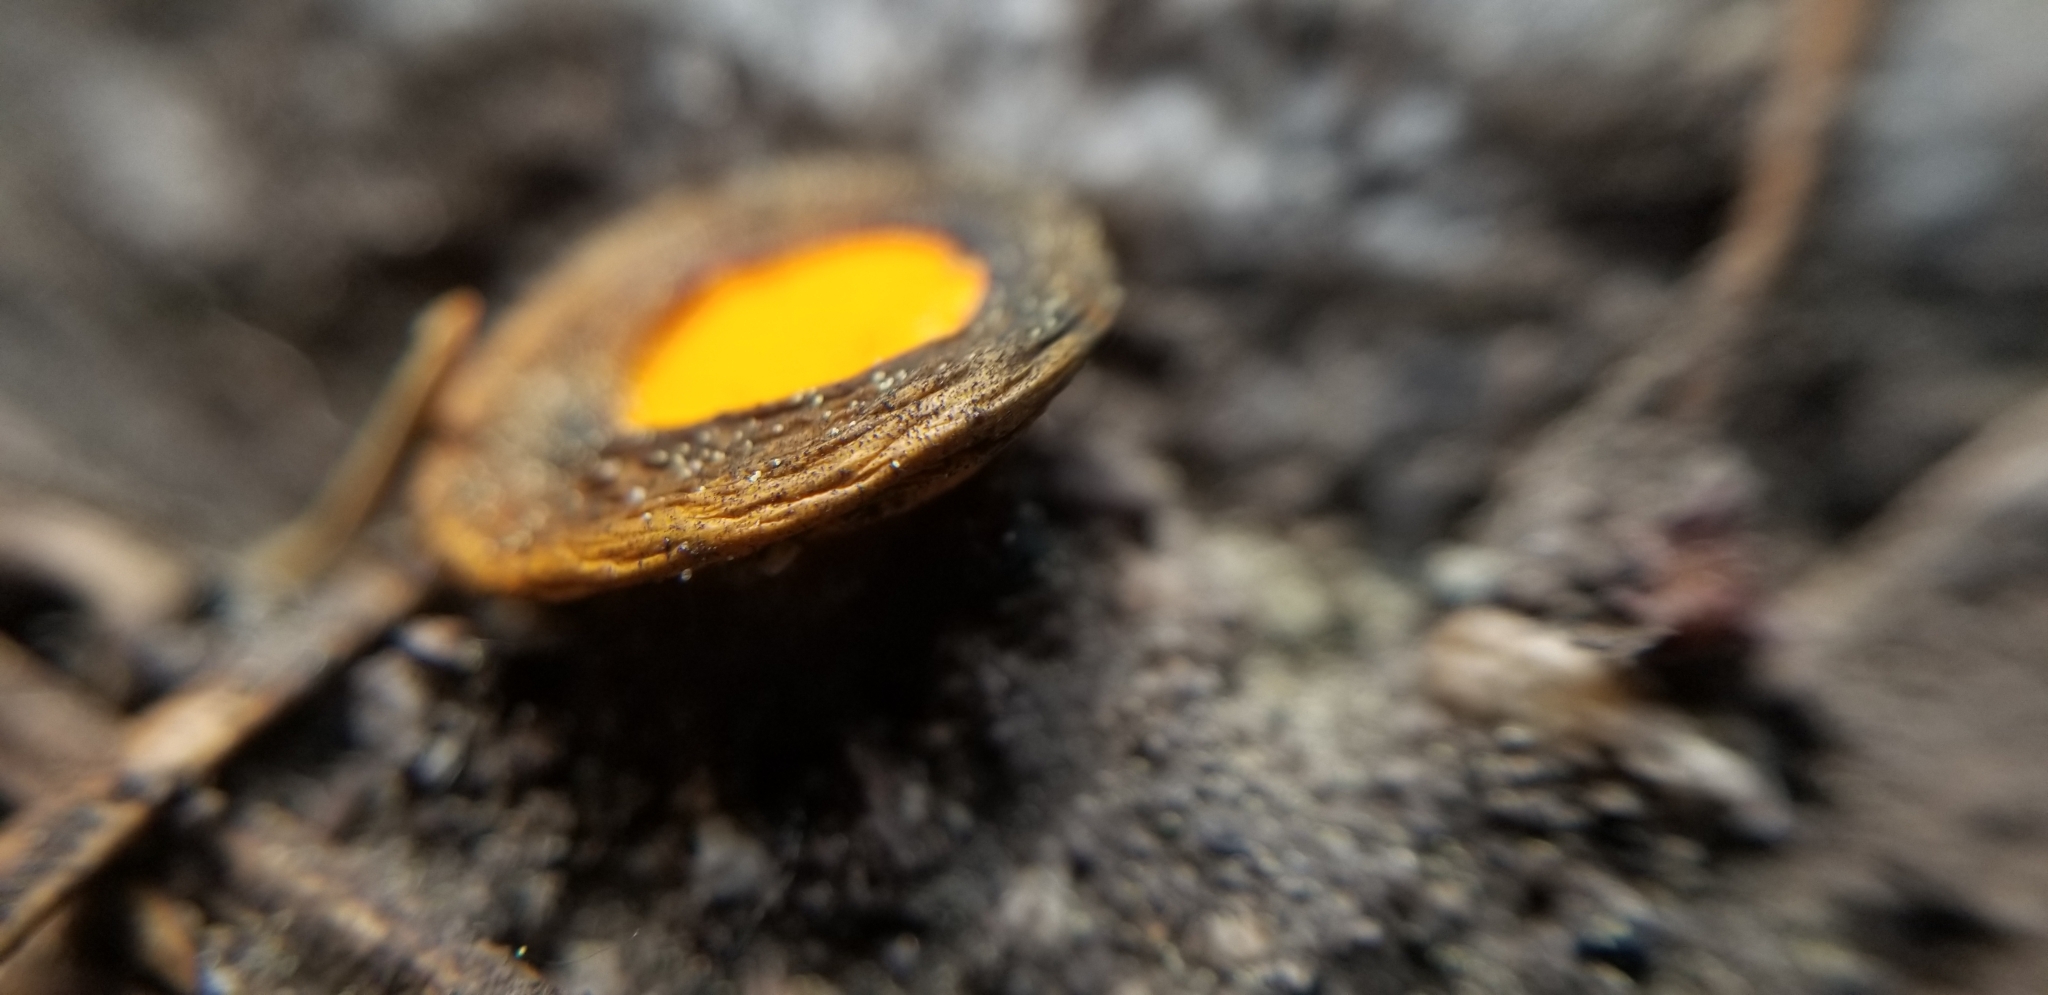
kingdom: Fungi
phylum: Ascomycota
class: Pezizomycetes
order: Pezizales
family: Caloscyphaceae
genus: Caloscypha
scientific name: Caloscypha fulgens
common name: Golden cup
